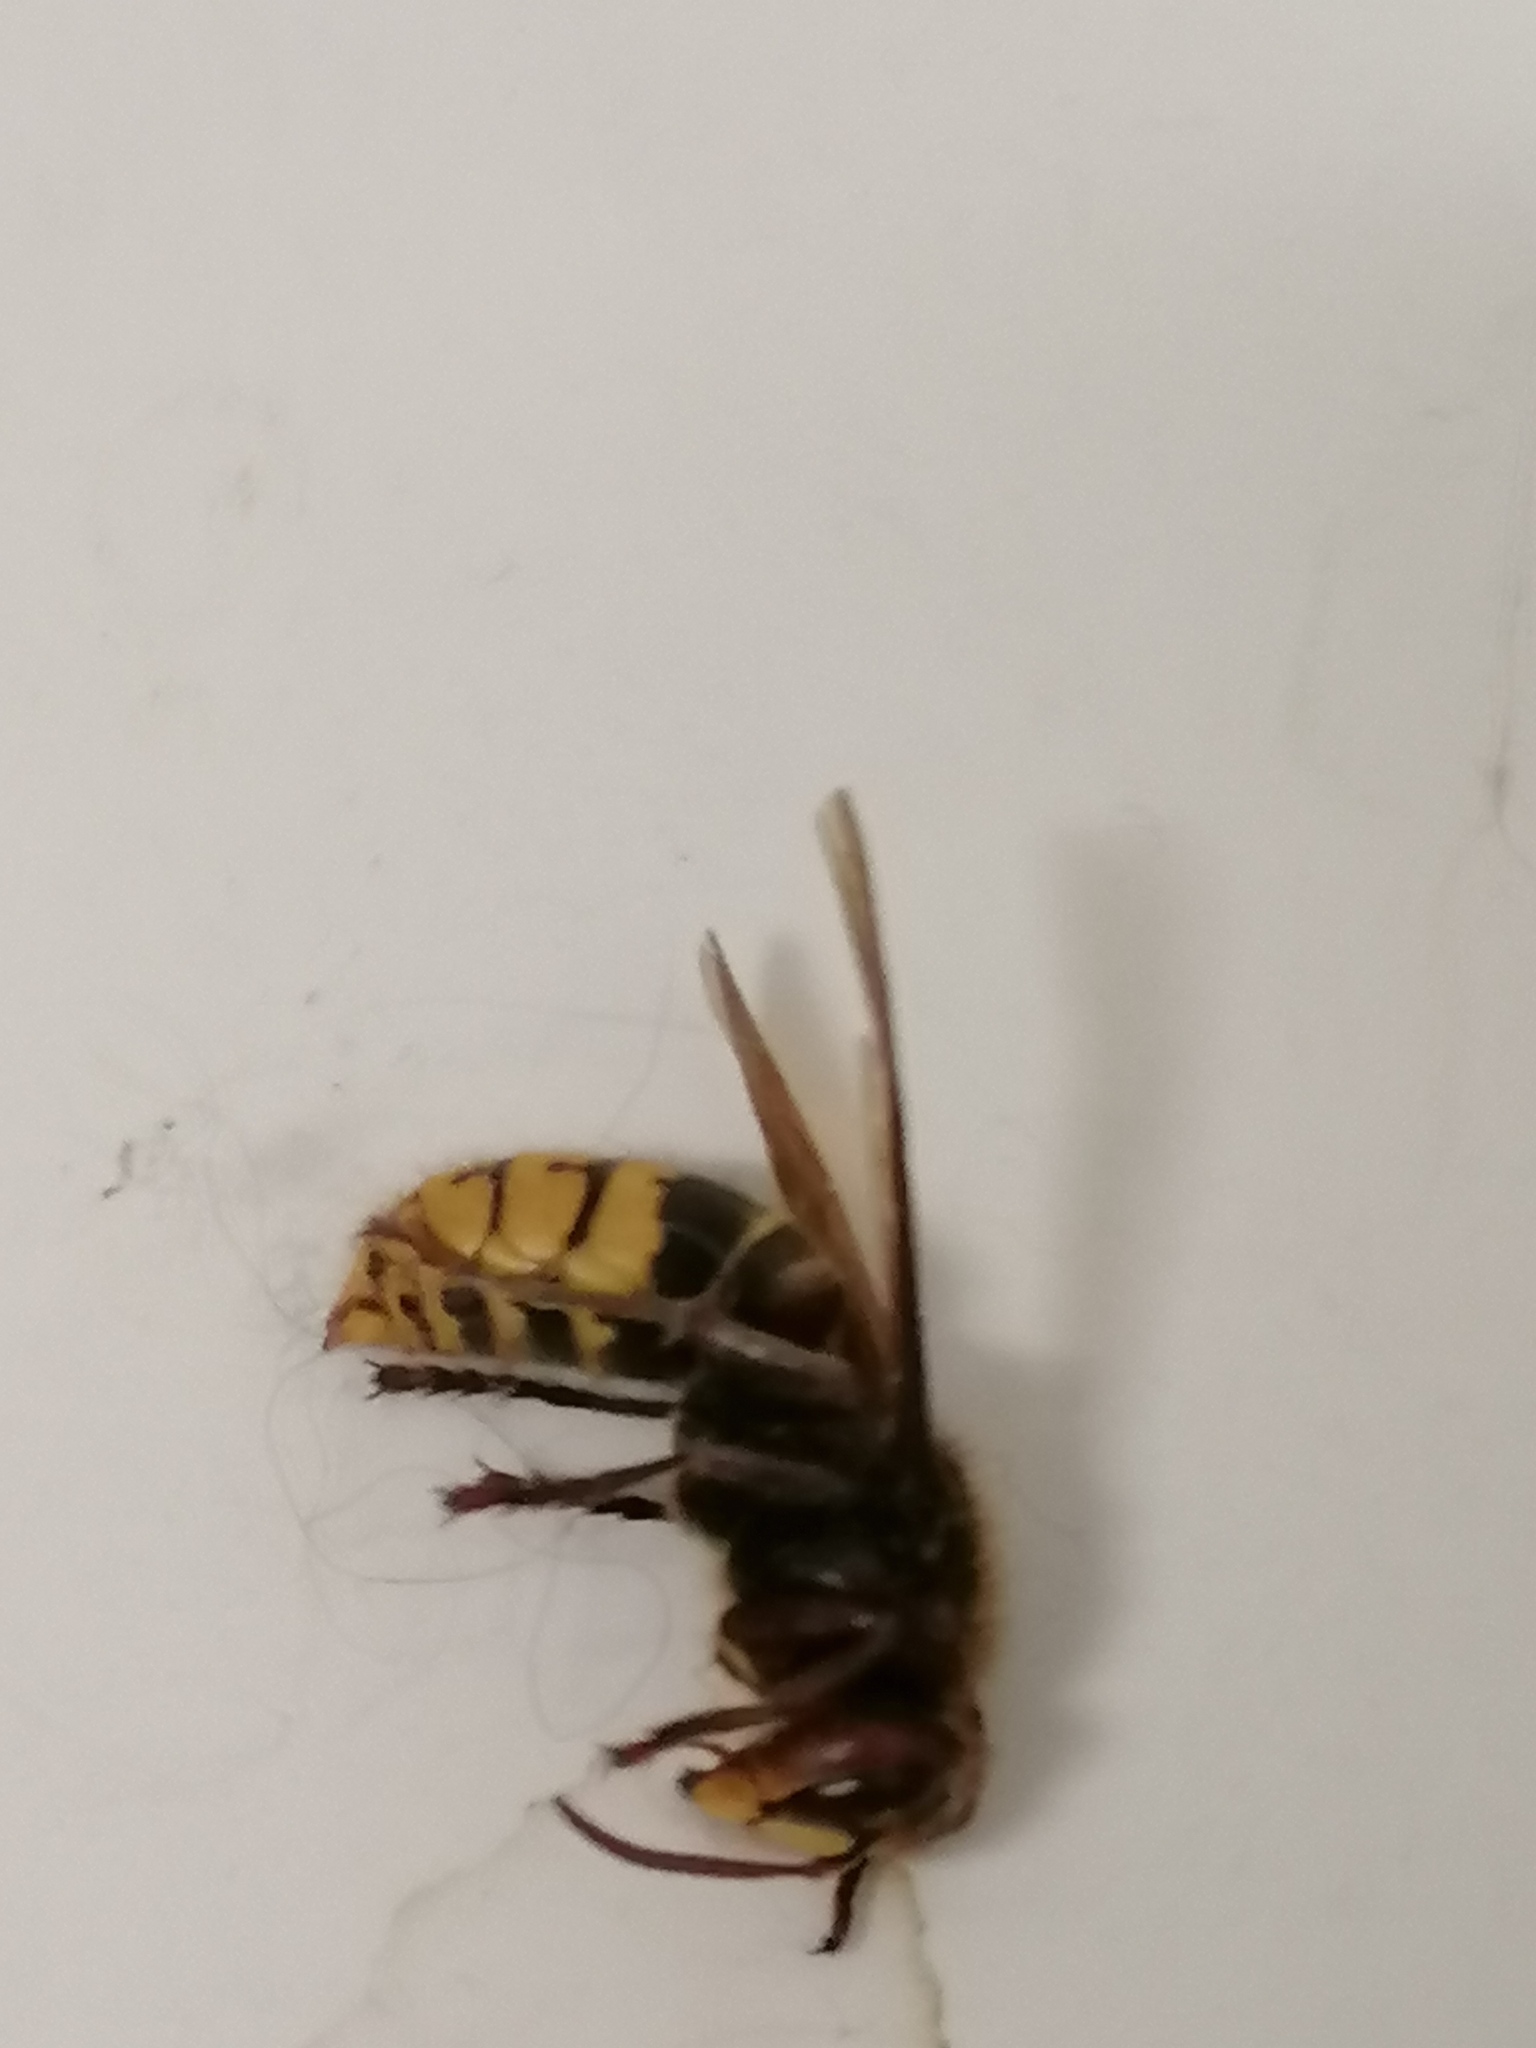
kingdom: Animalia
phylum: Arthropoda
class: Insecta
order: Hymenoptera
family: Vespidae
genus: Vespa
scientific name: Vespa crabro
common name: Hornet
